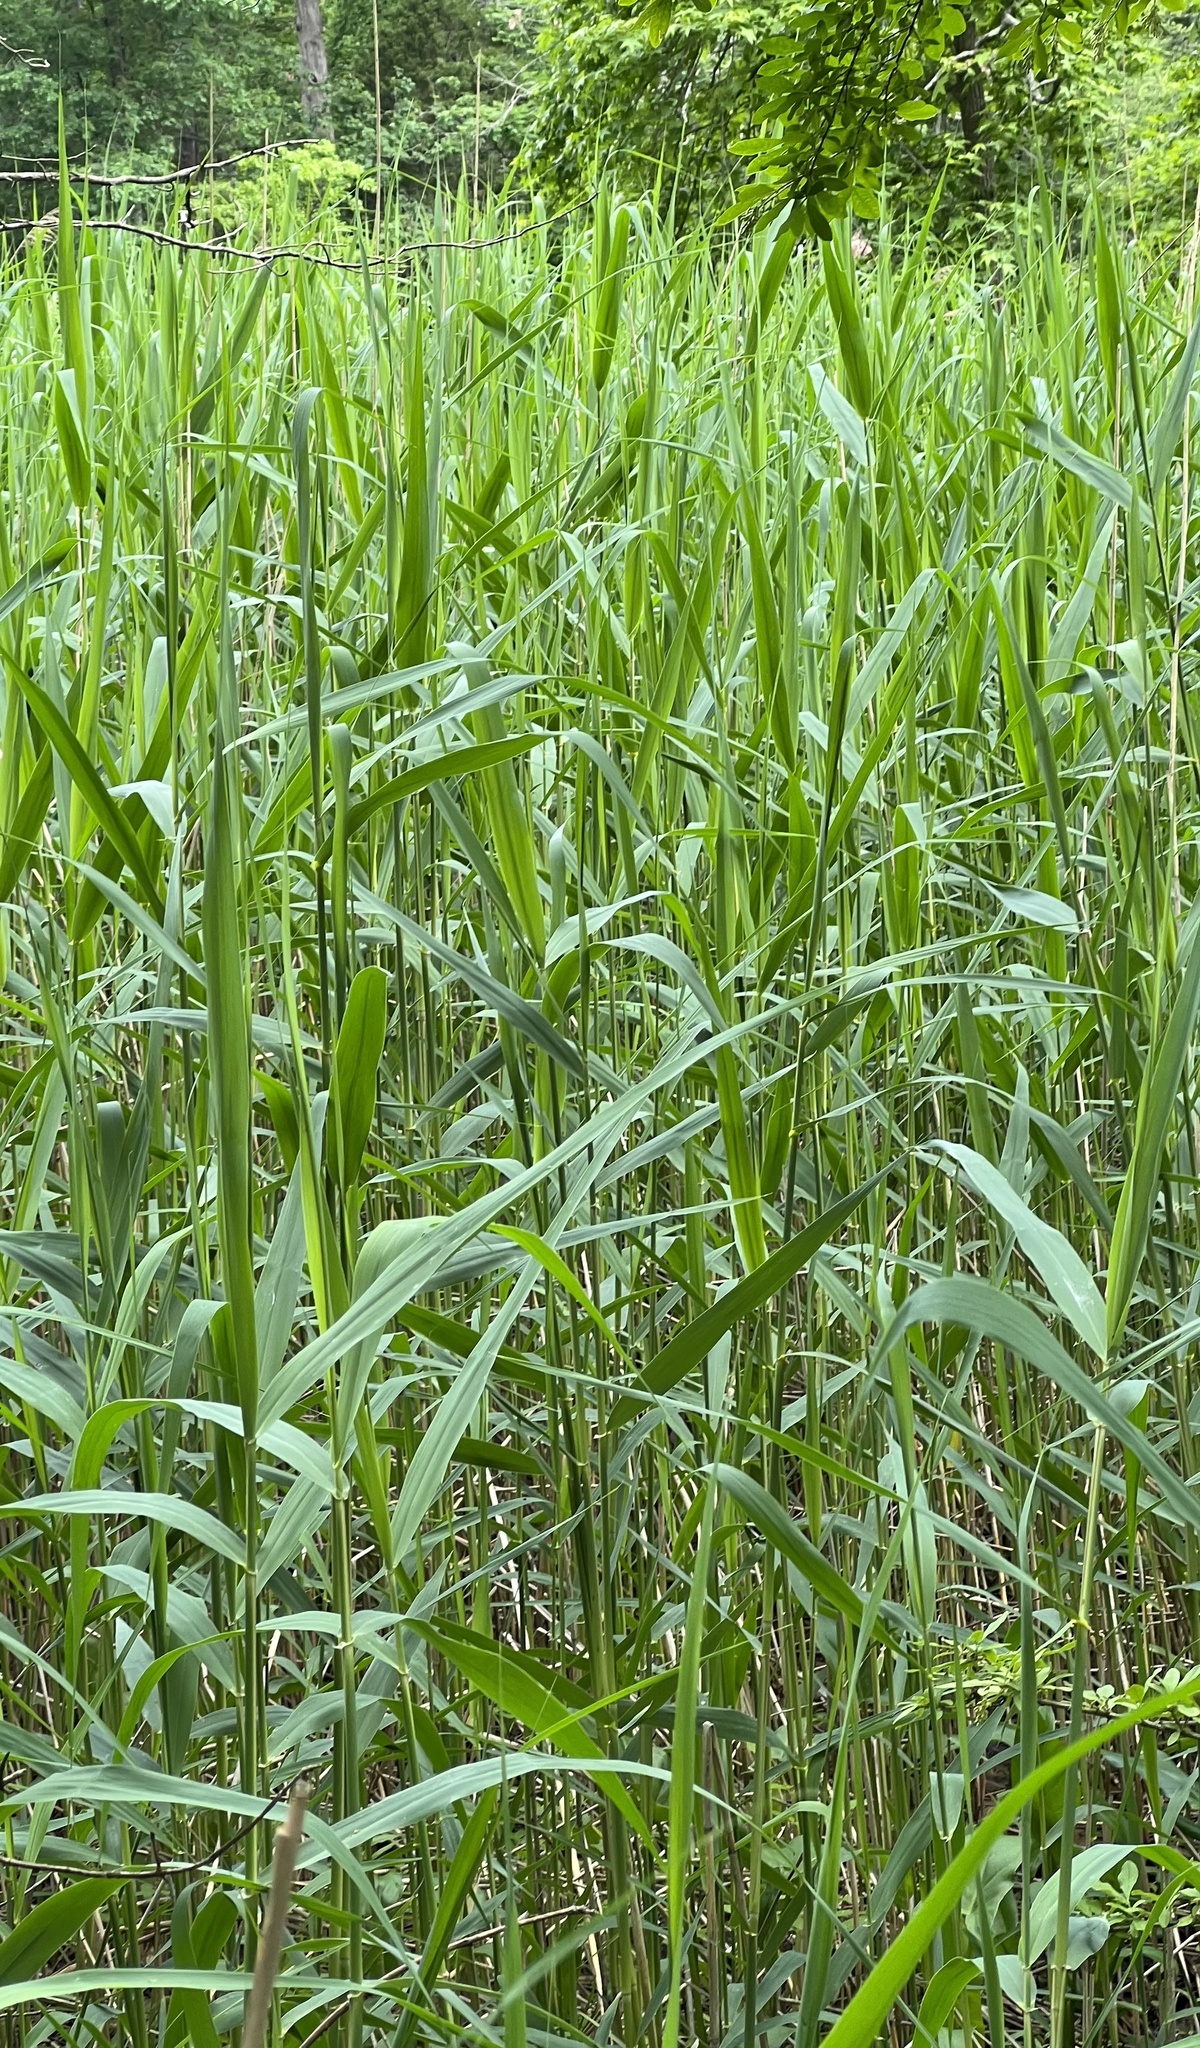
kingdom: Plantae
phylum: Tracheophyta
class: Liliopsida
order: Poales
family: Poaceae
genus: Phragmites
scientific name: Phragmites australis
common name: Common reed
